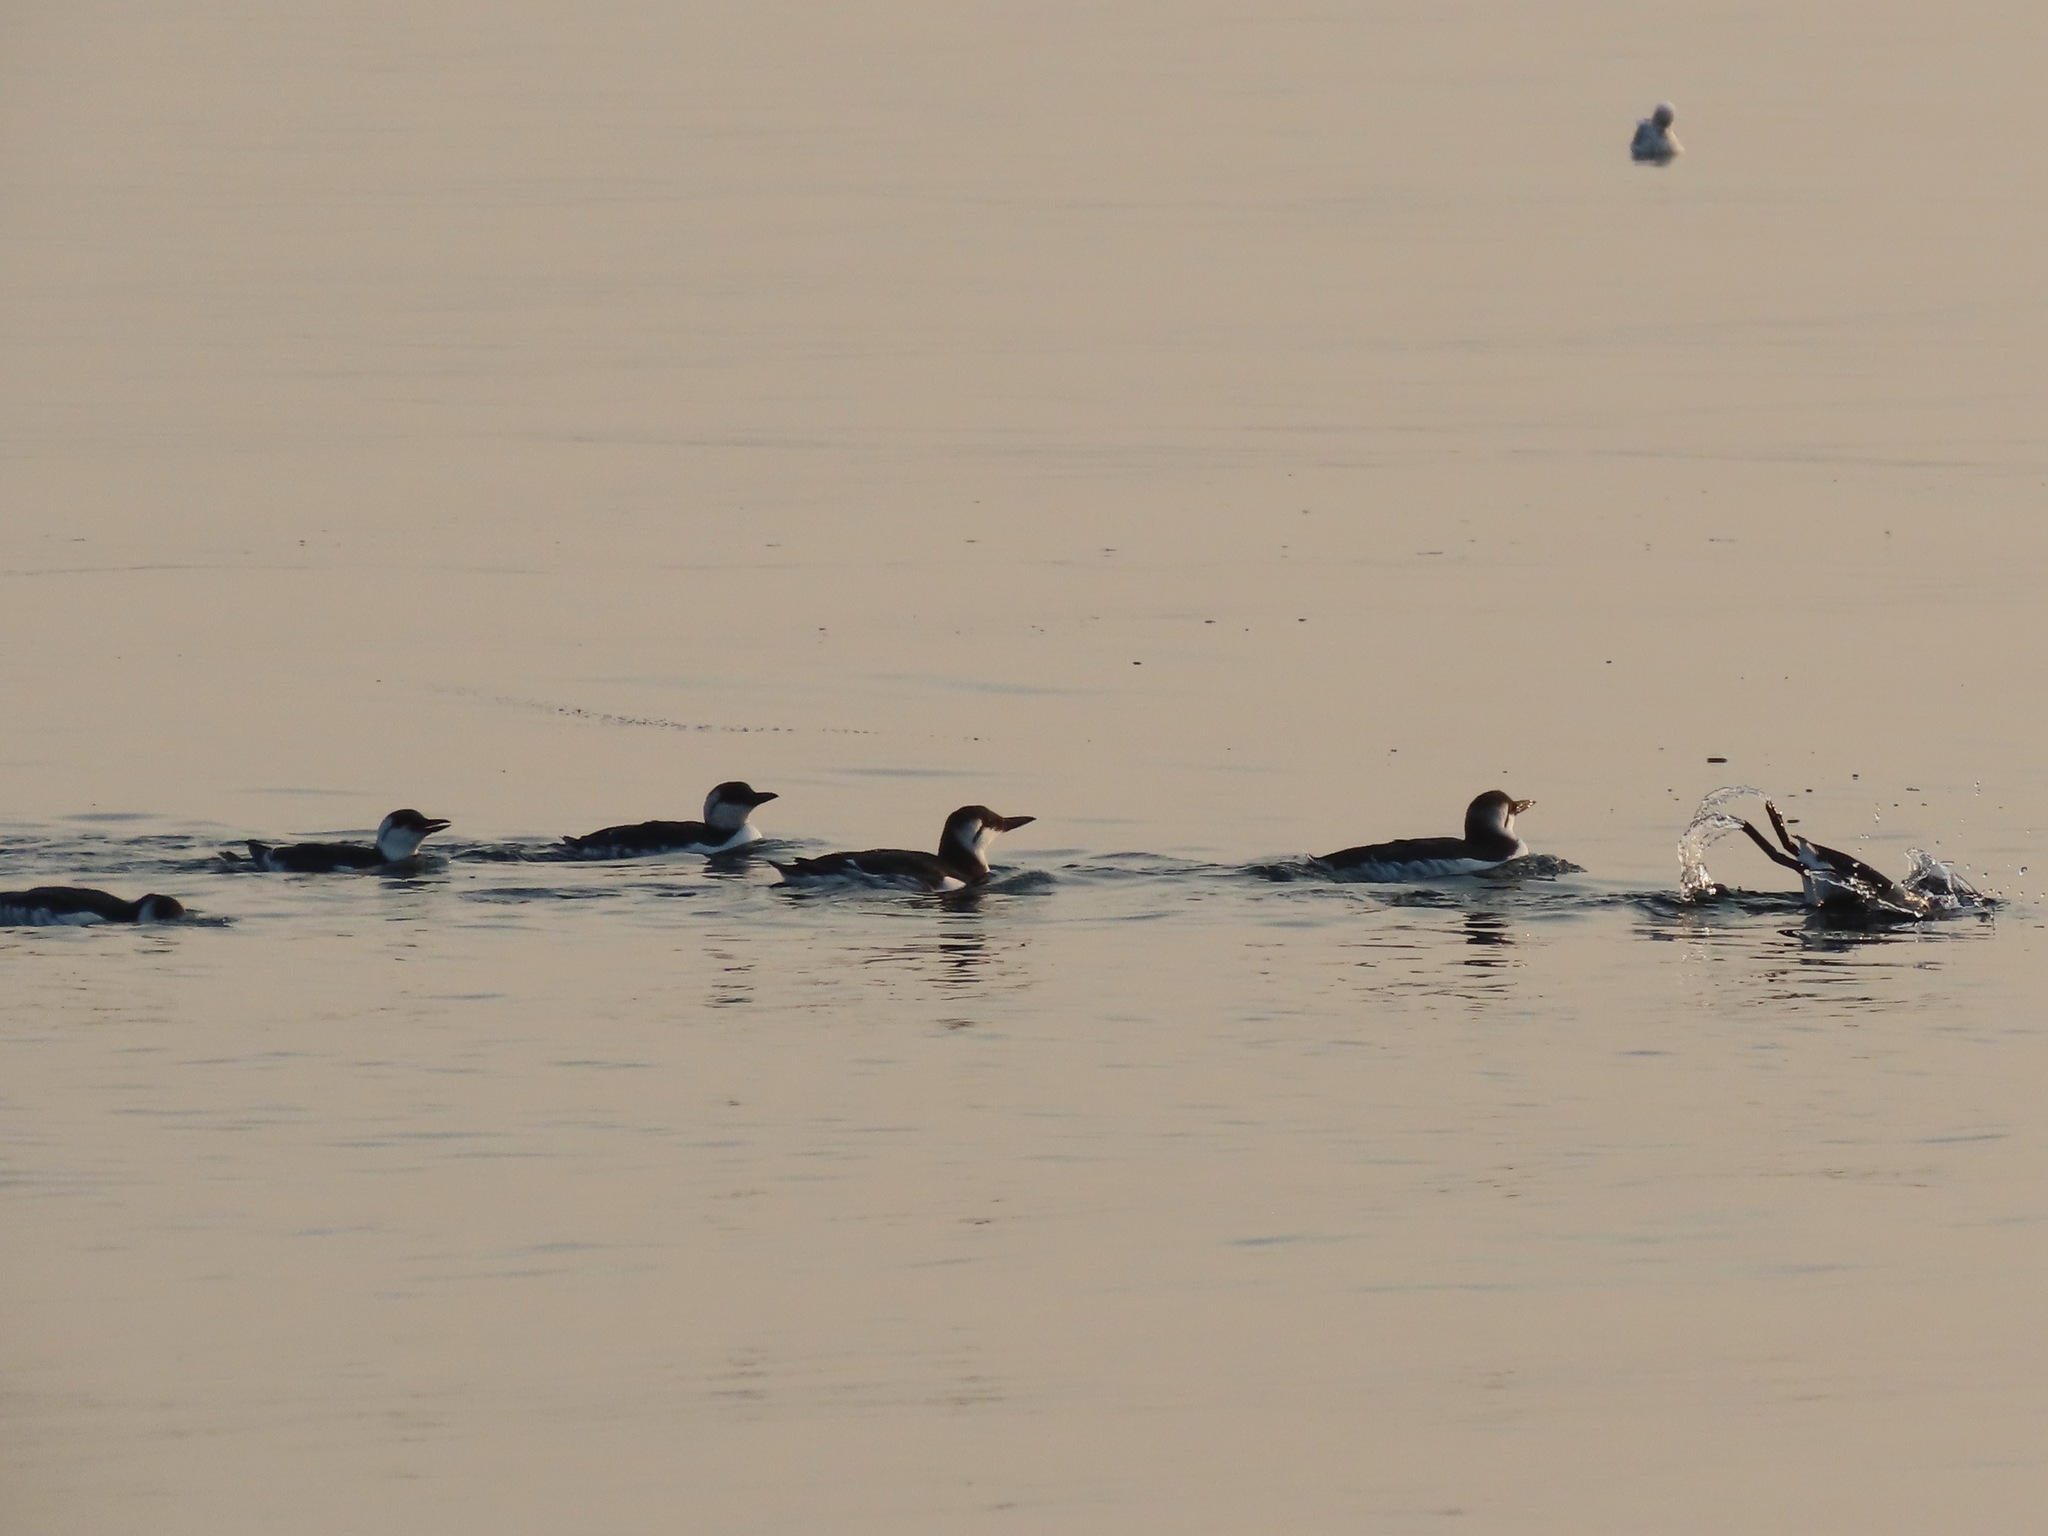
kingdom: Animalia
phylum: Chordata
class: Aves
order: Charadriiformes
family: Alcidae
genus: Uria
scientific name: Uria aalge
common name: Common murre
